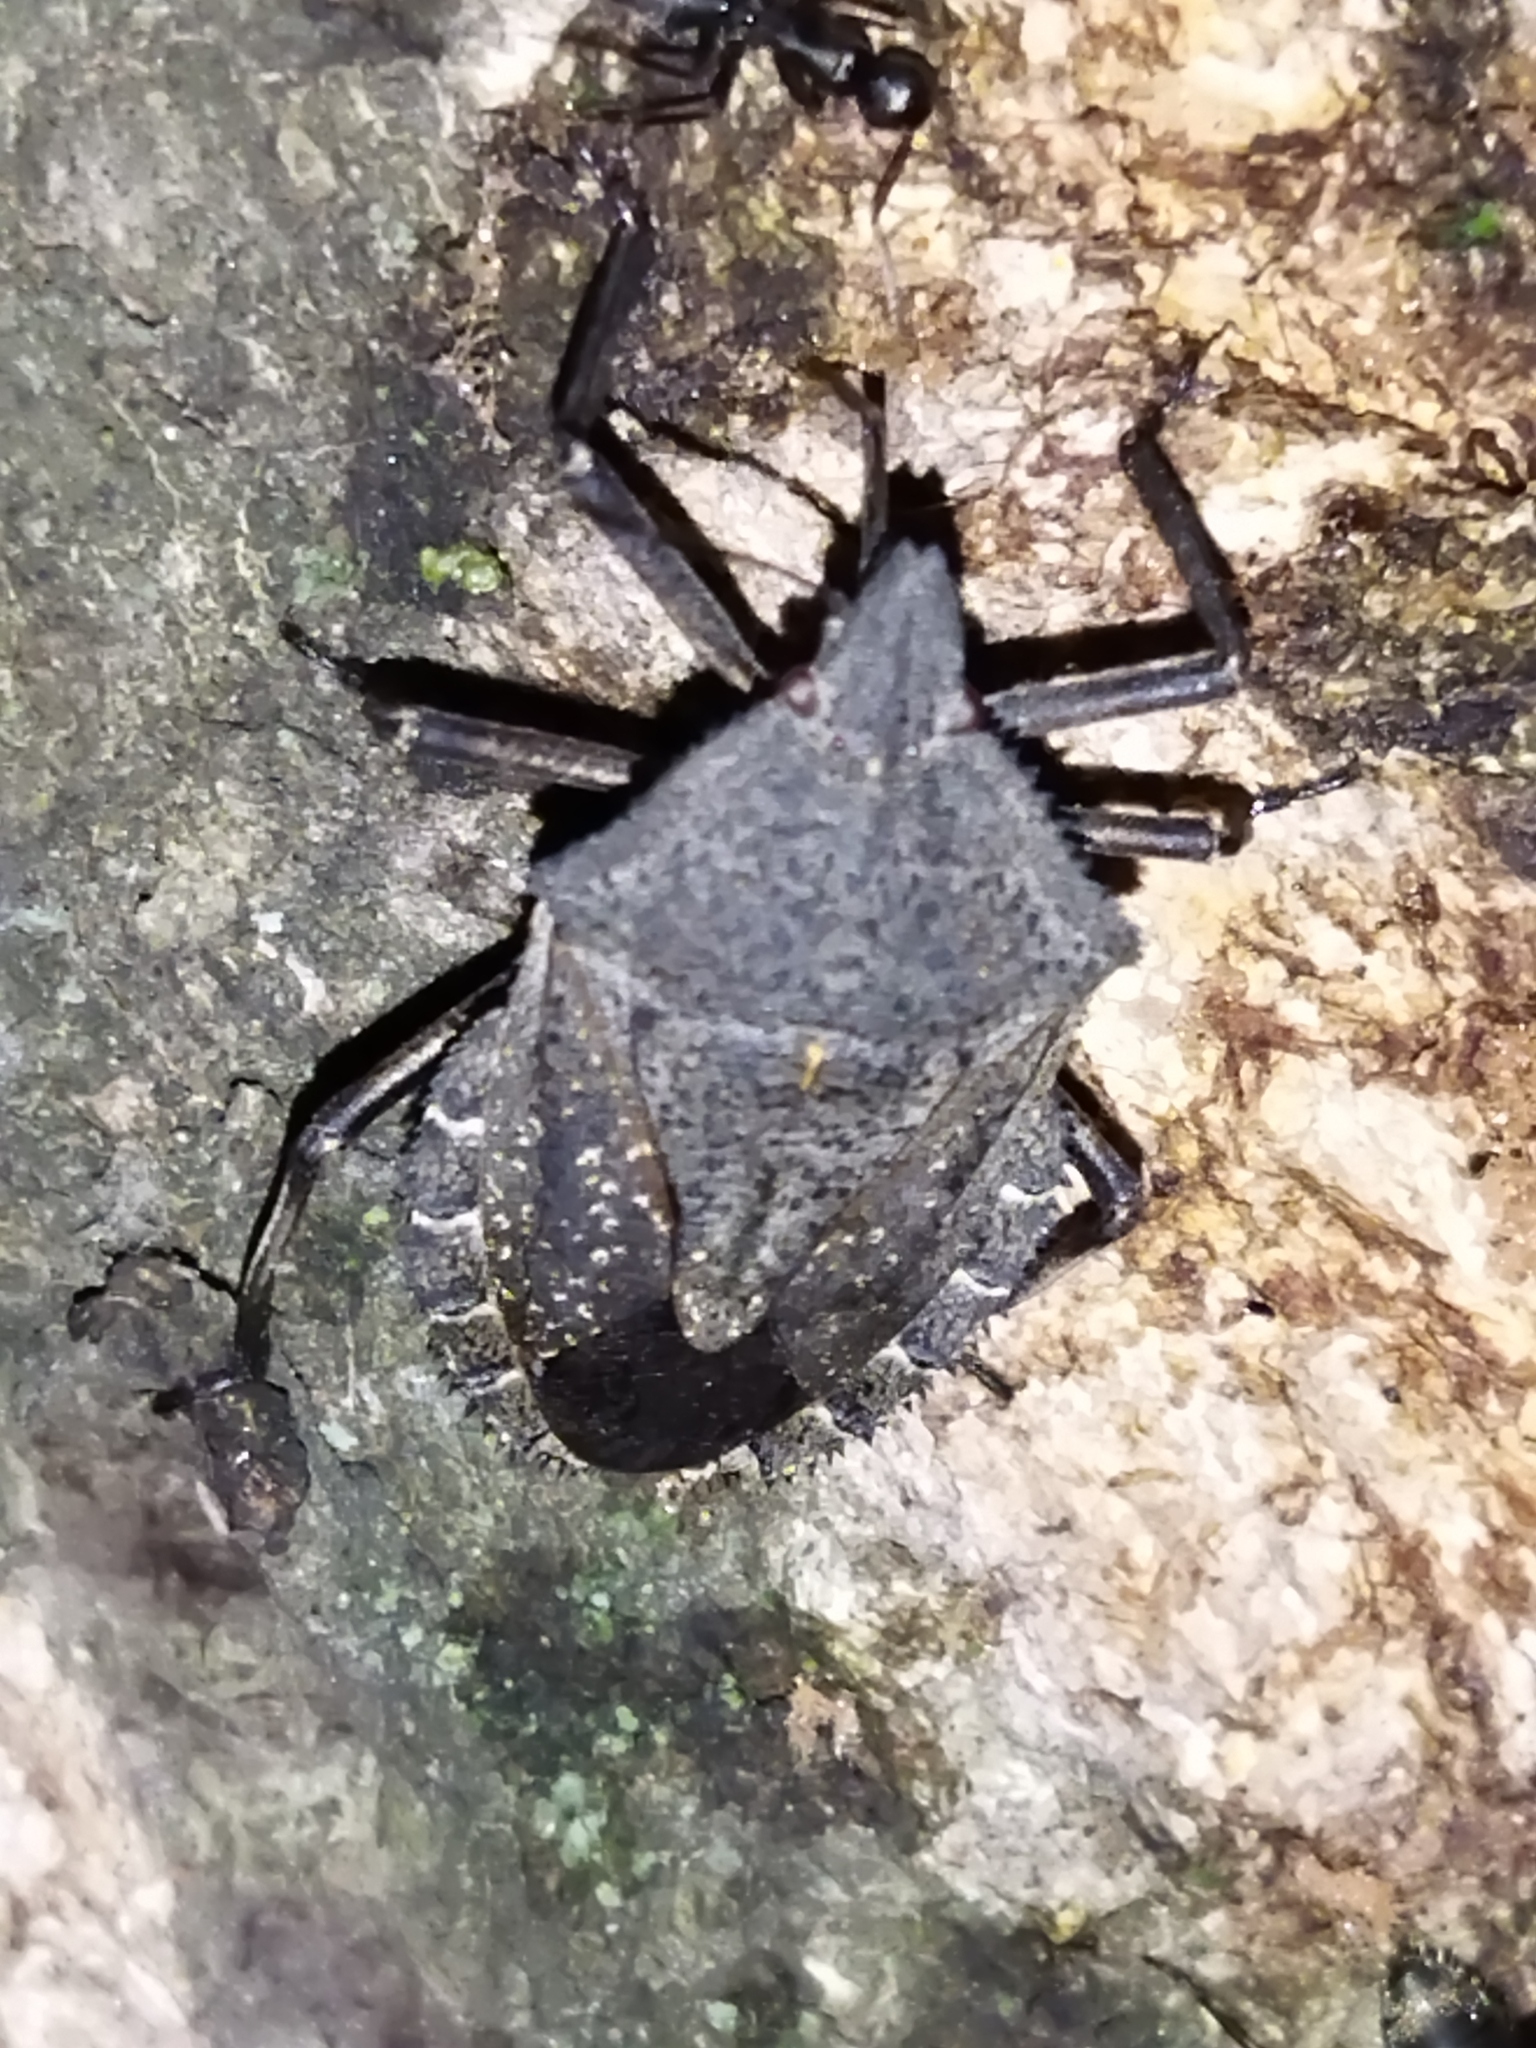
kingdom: Animalia
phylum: Arthropoda
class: Insecta
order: Hemiptera
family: Pentatomidae
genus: Mustha
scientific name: Mustha spinosula
